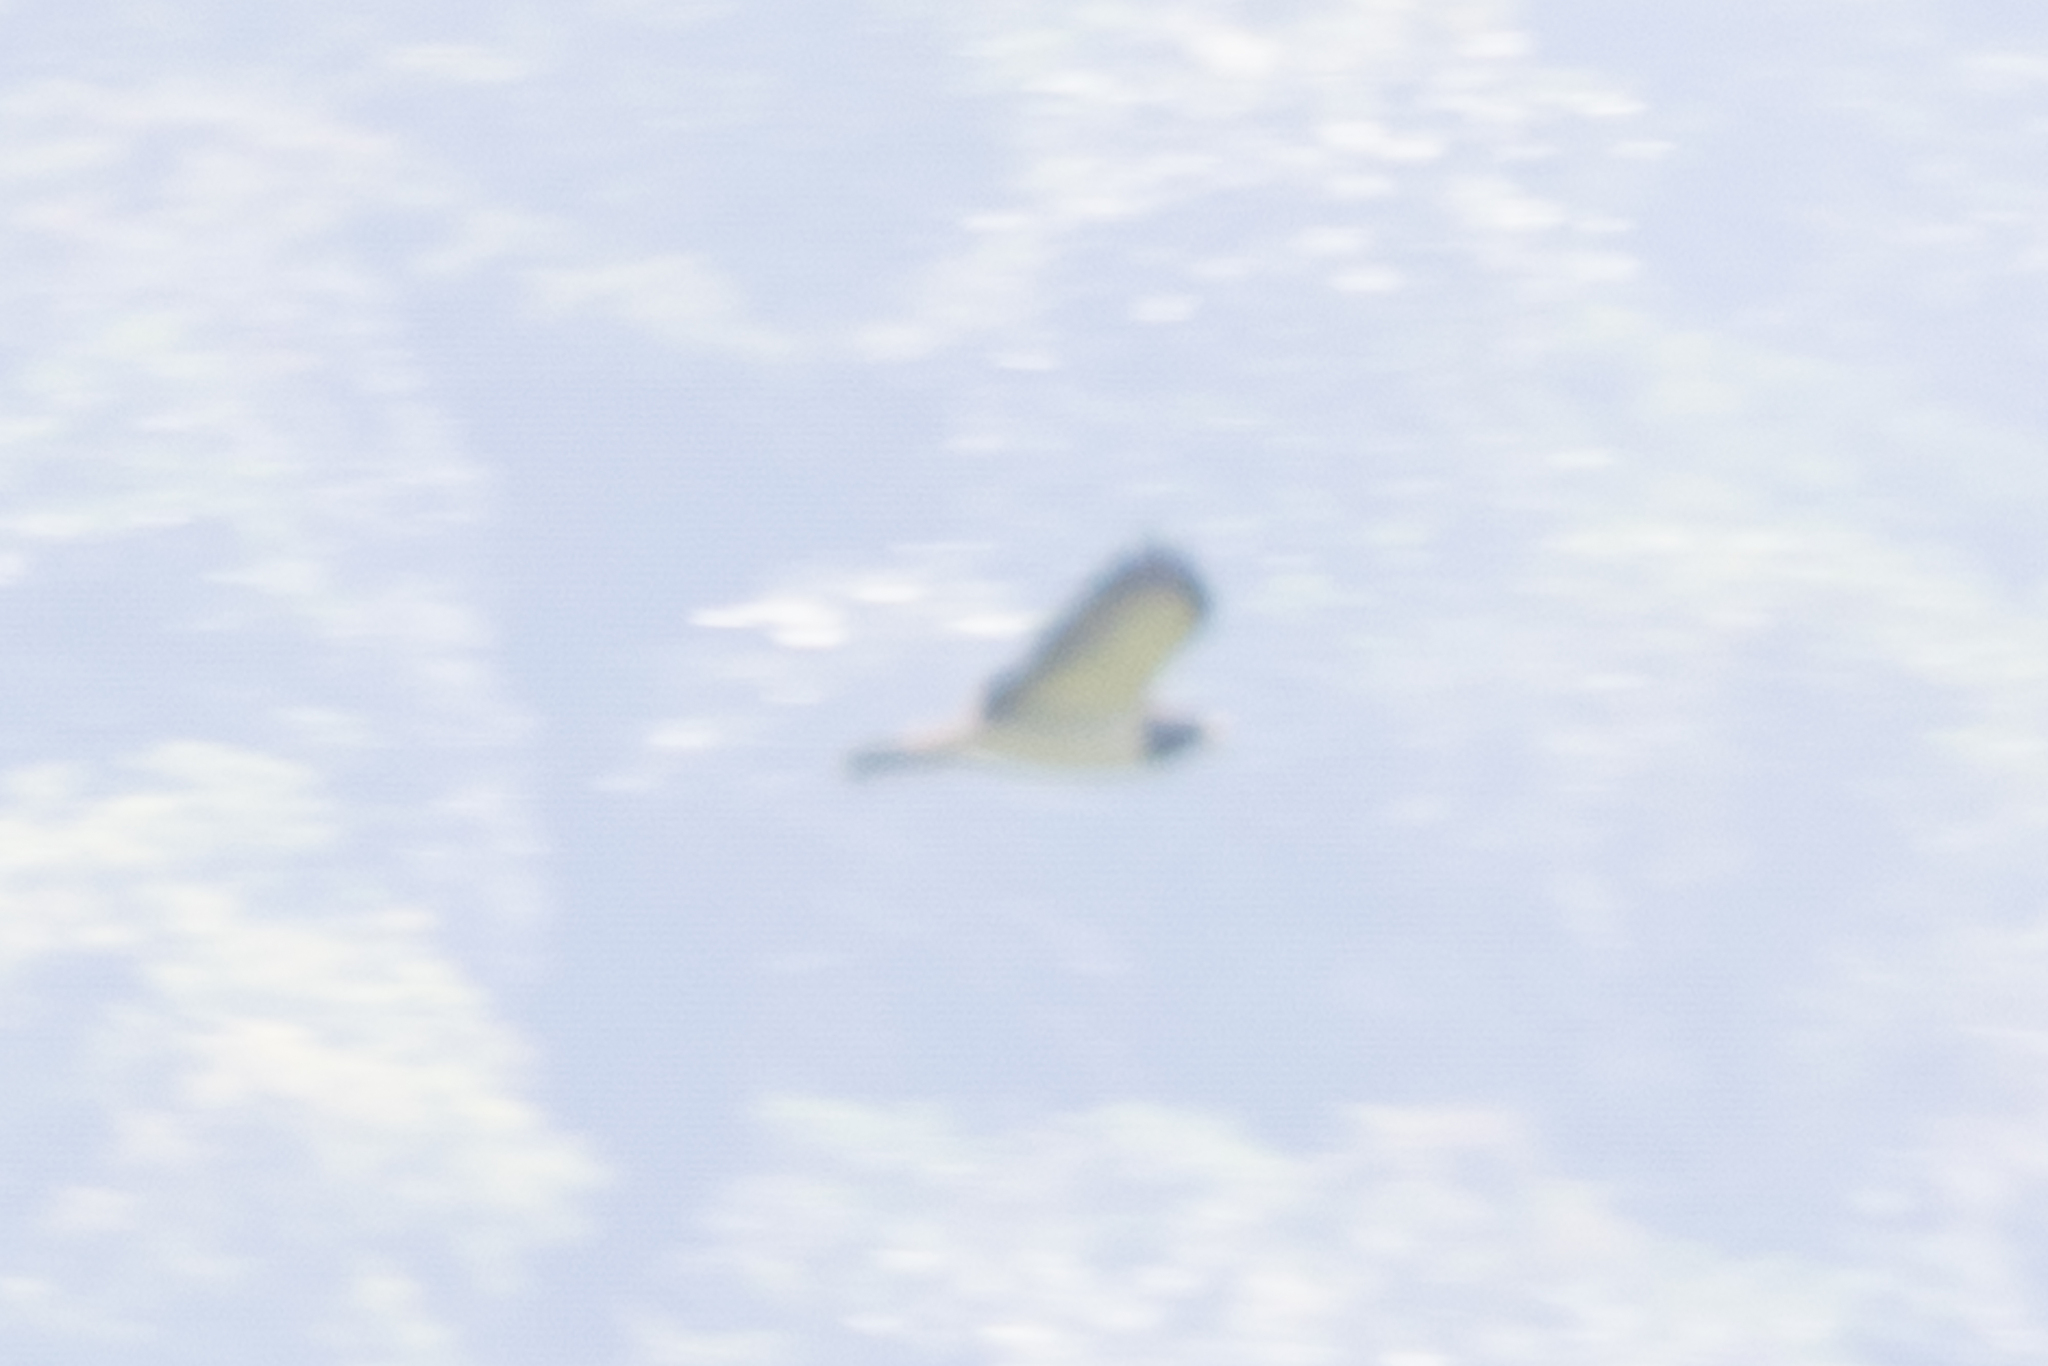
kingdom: Animalia
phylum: Chordata
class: Aves
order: Accipitriformes
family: Accipitridae
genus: Buteo
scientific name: Buteo brachyurus
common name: Short-tailed hawk
